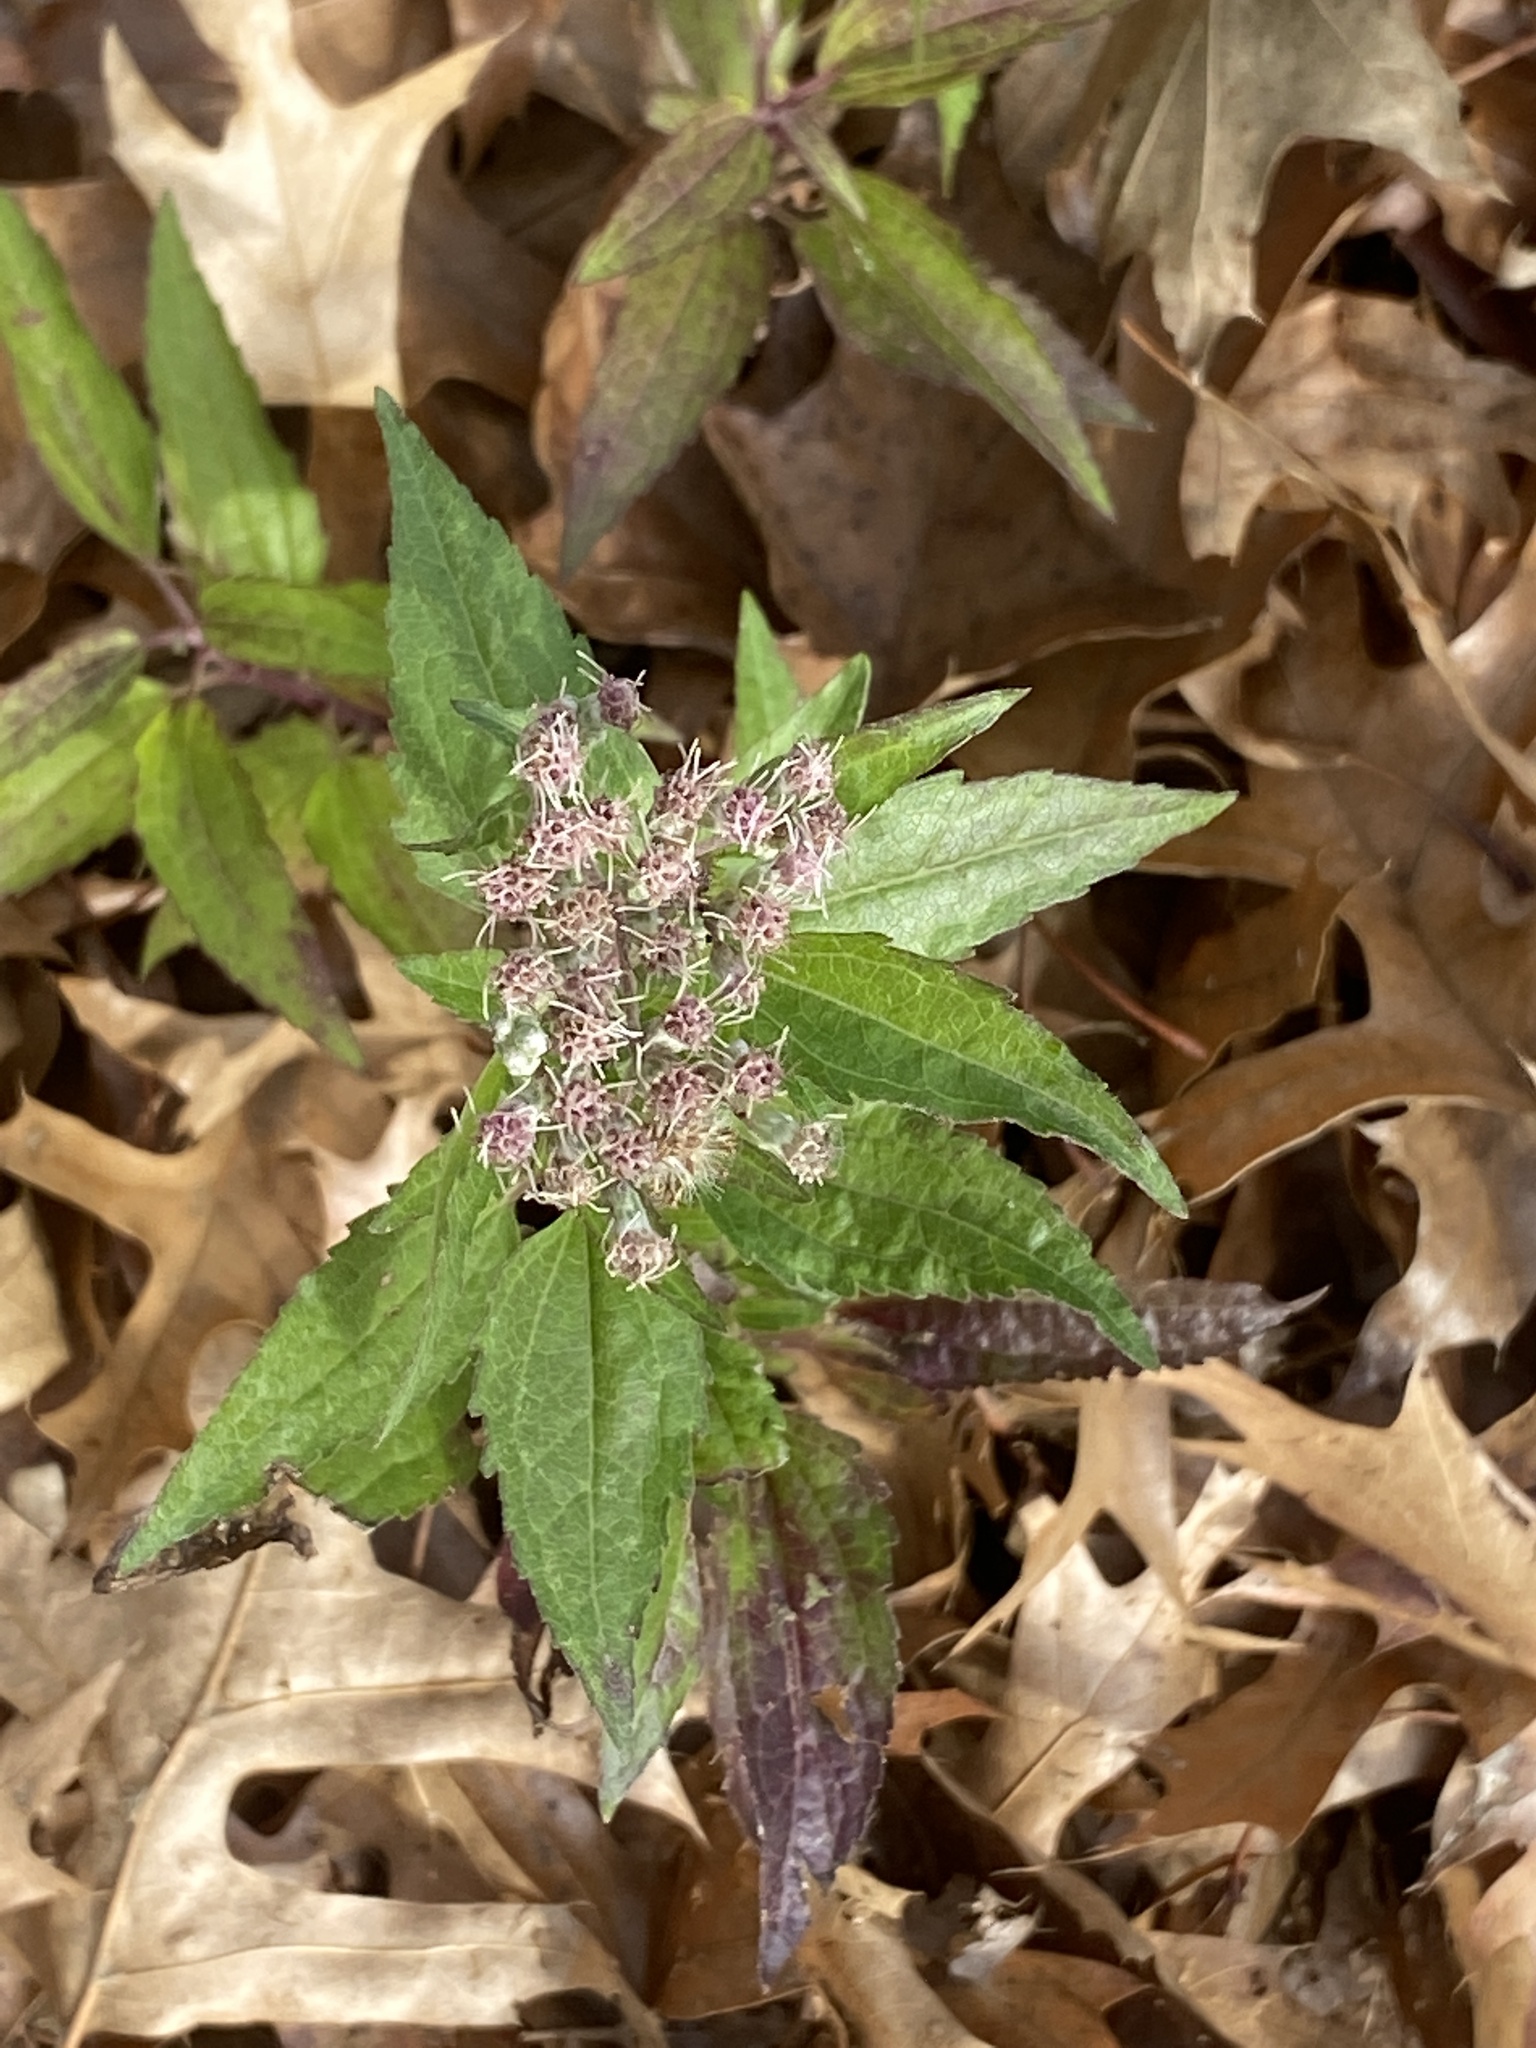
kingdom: Plantae
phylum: Tracheophyta
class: Magnoliopsida
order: Asterales
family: Asteraceae
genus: Eupatorium
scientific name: Eupatorium serotinum
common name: Late boneset
